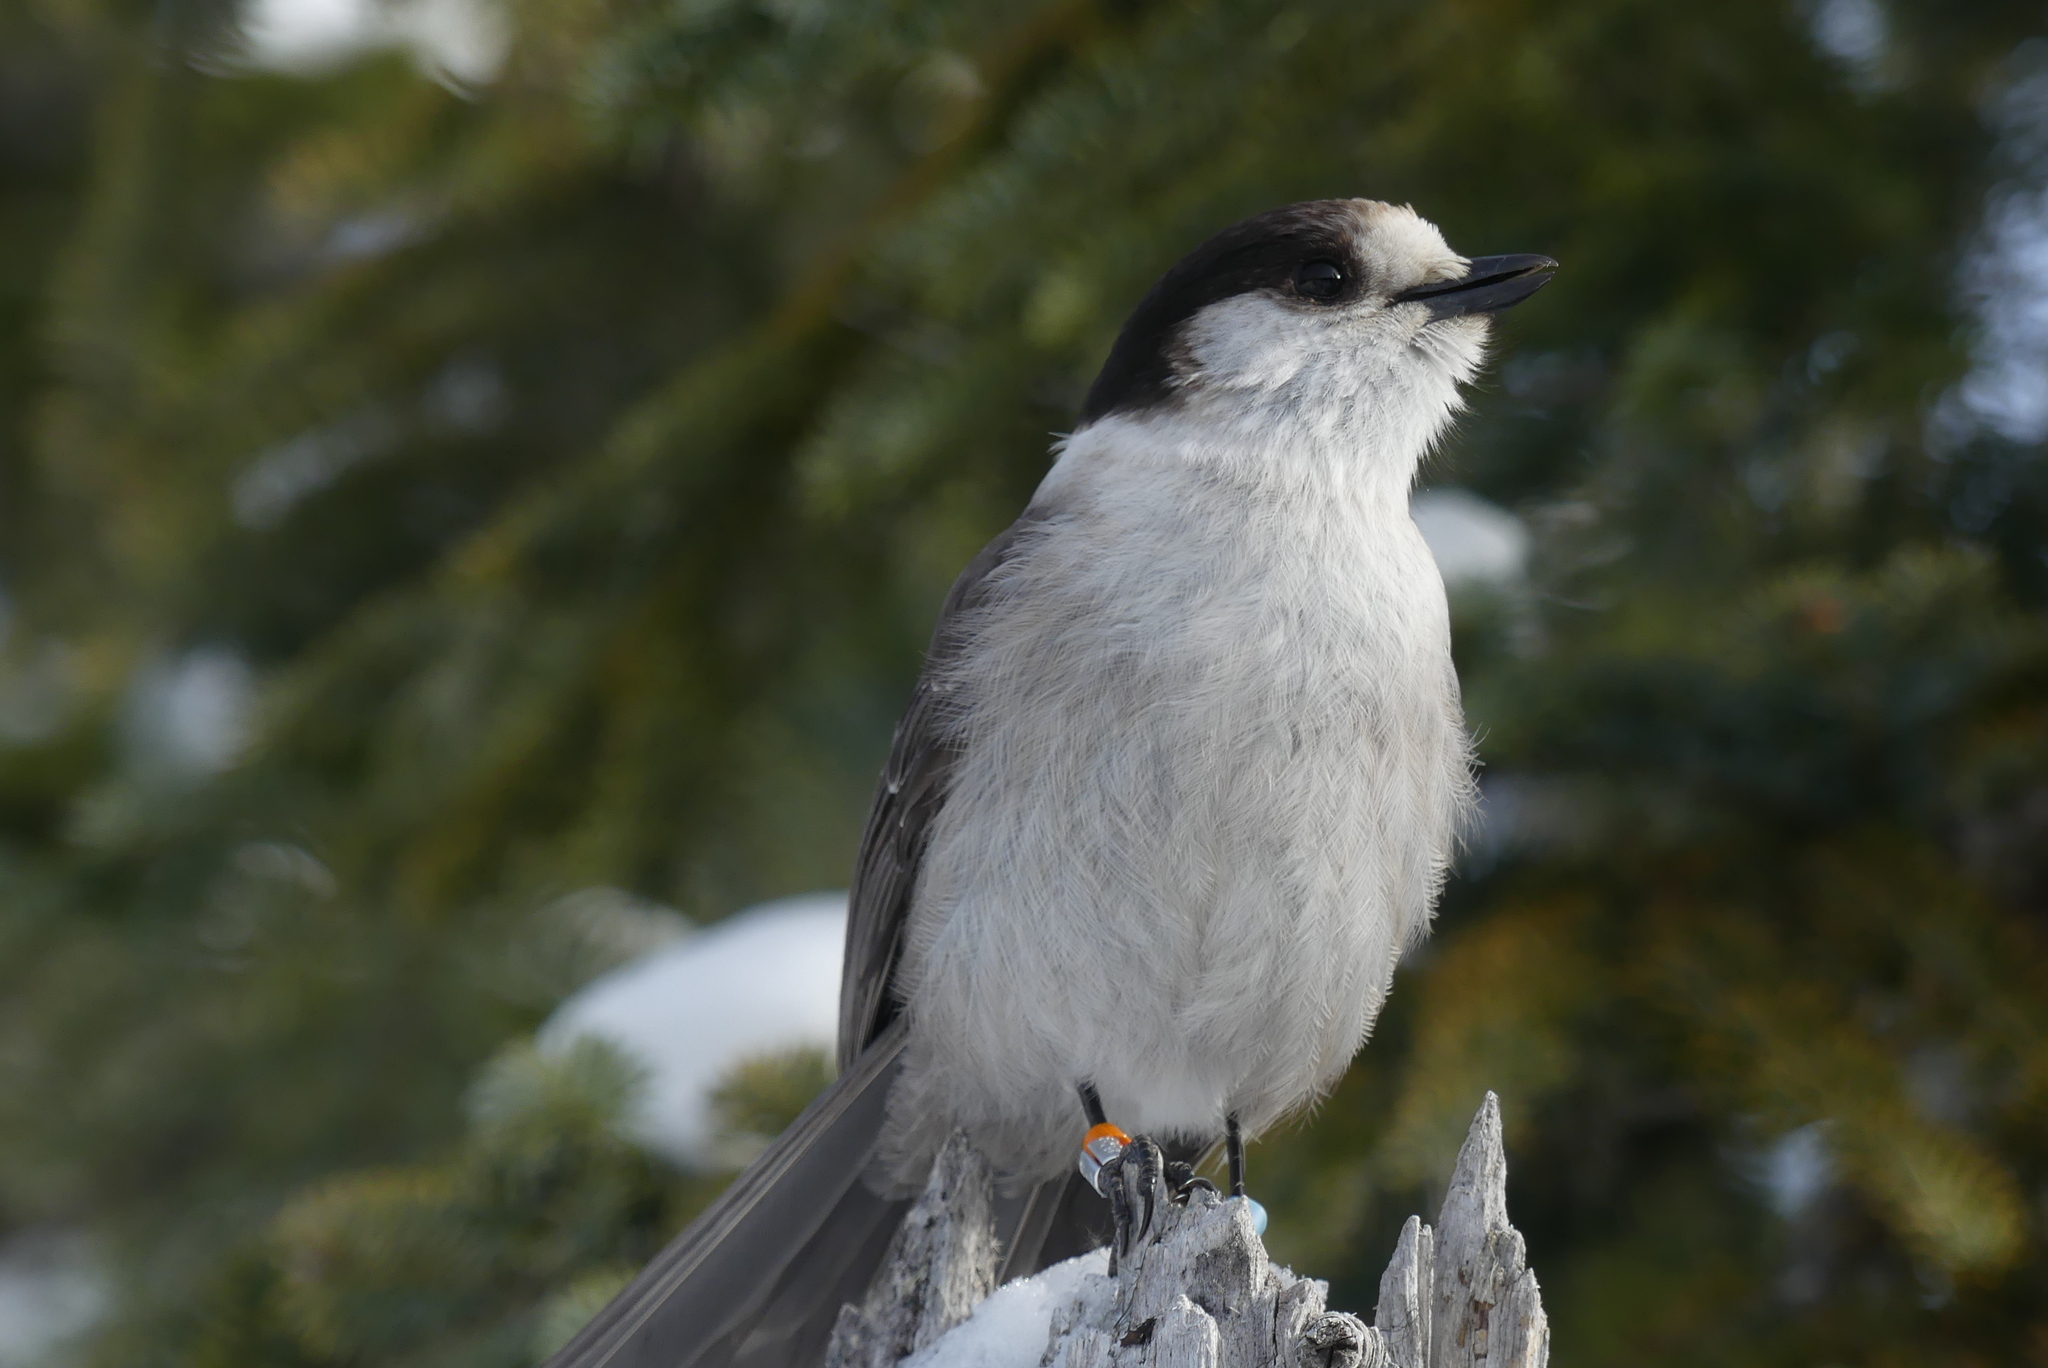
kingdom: Animalia
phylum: Chordata
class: Aves
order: Passeriformes
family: Corvidae
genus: Perisoreus
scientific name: Perisoreus canadensis
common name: Gray jay
